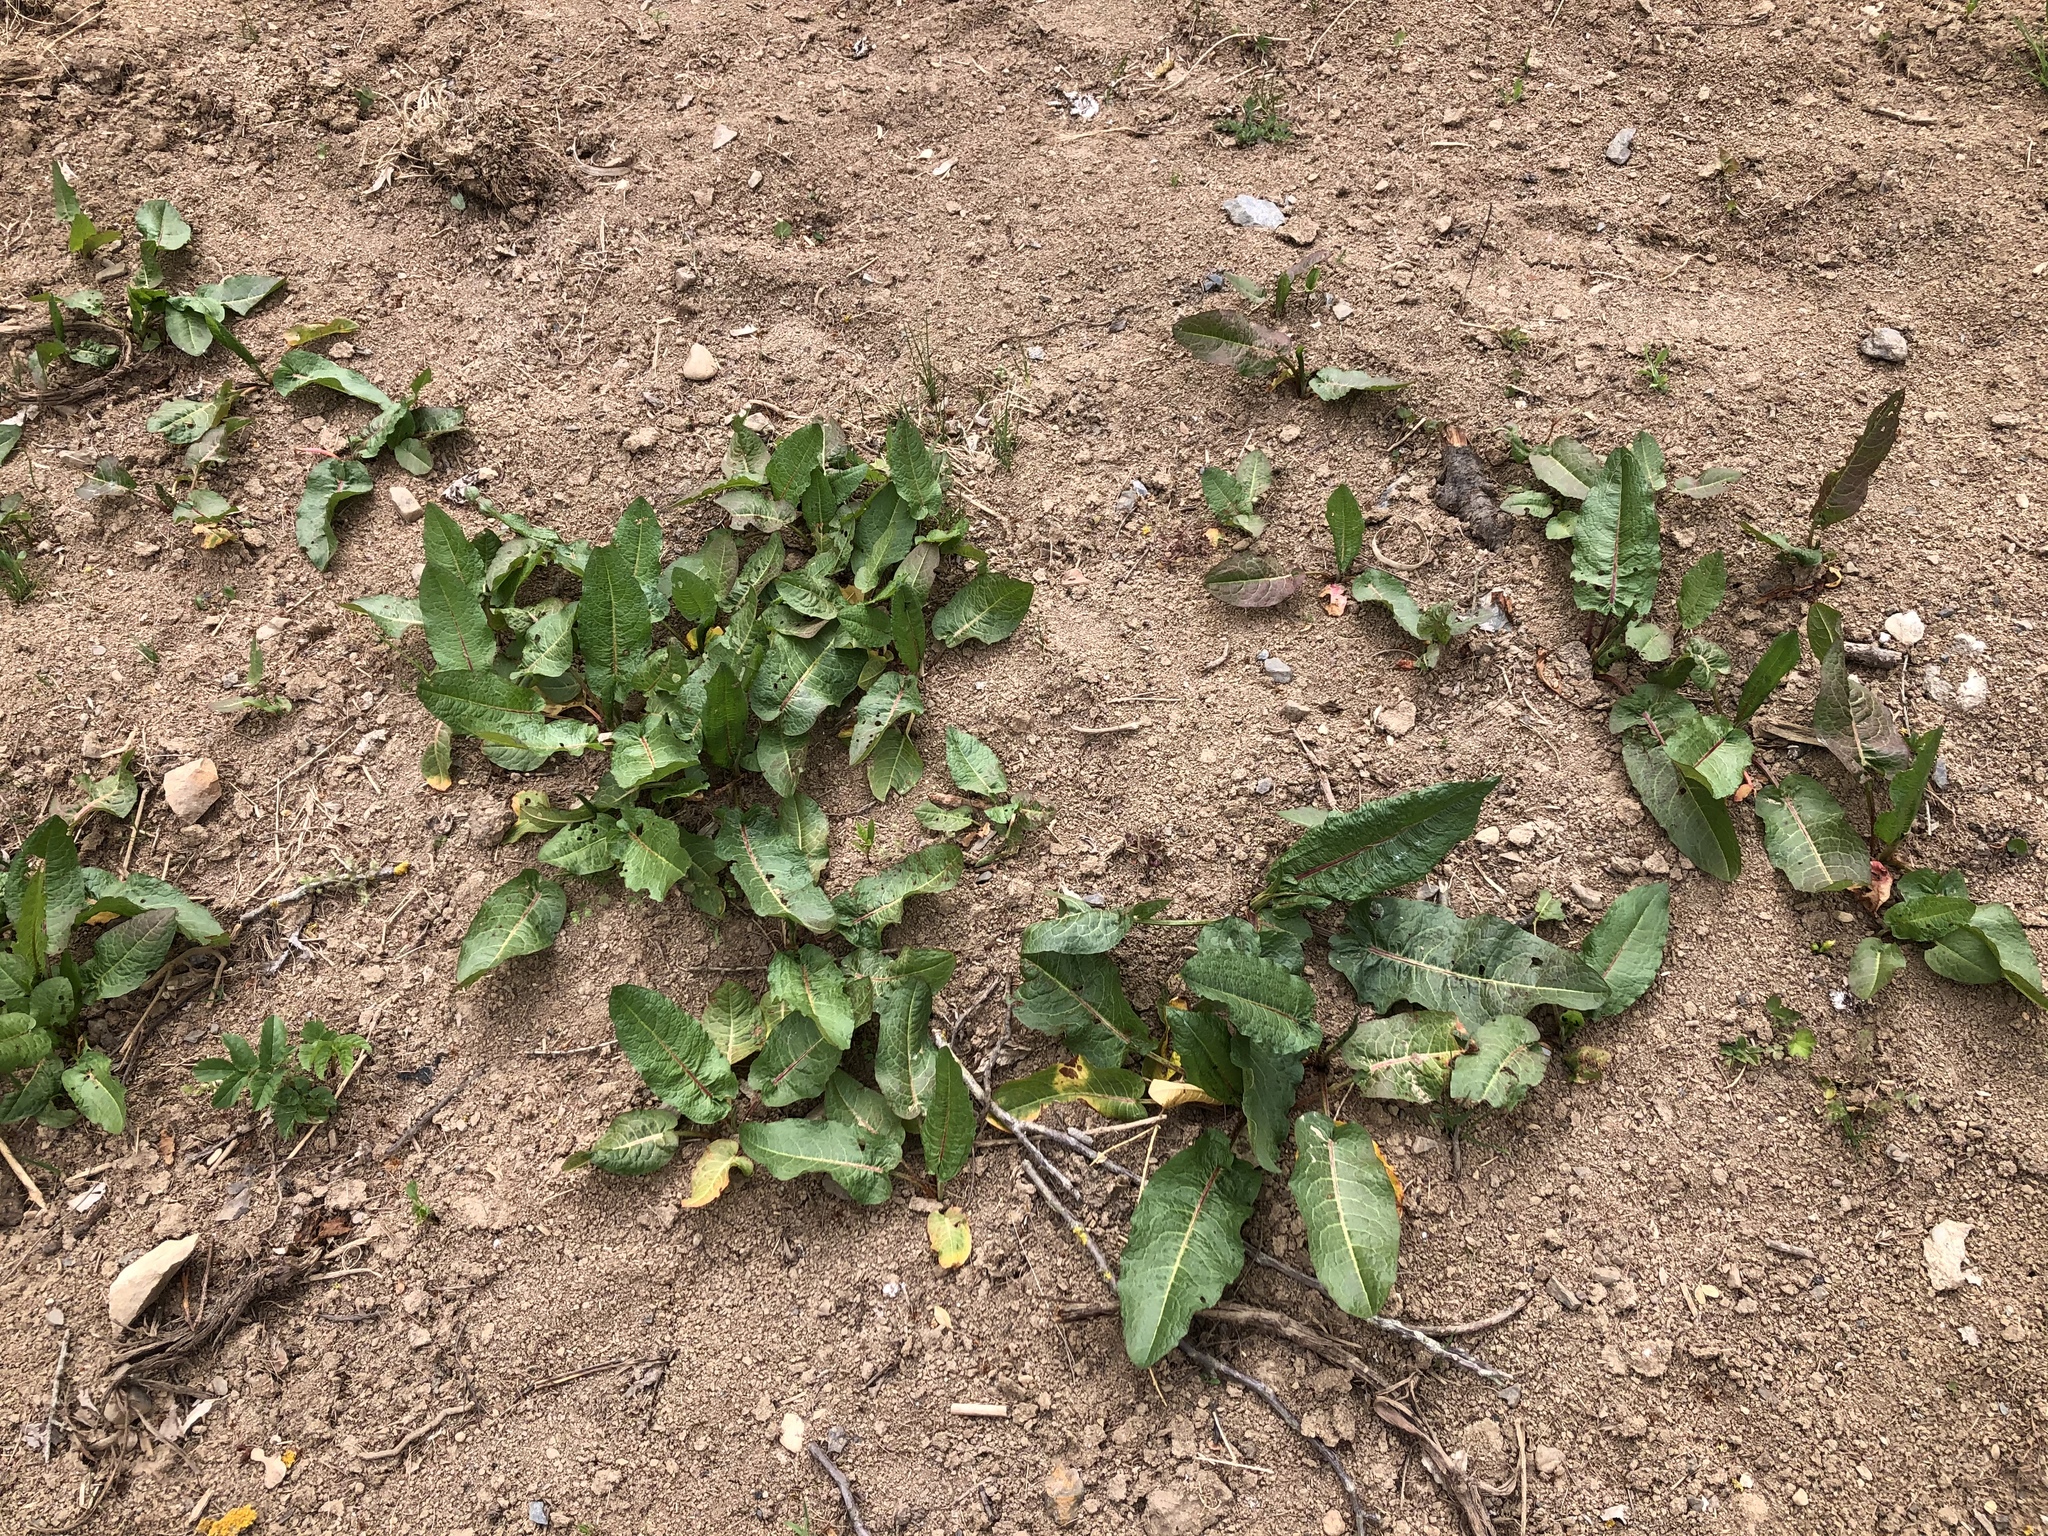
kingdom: Plantae
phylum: Tracheophyta
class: Magnoliopsida
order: Caryophyllales
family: Polygonaceae
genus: Rumex
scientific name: Rumex obtusifolius
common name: Bitter dock
